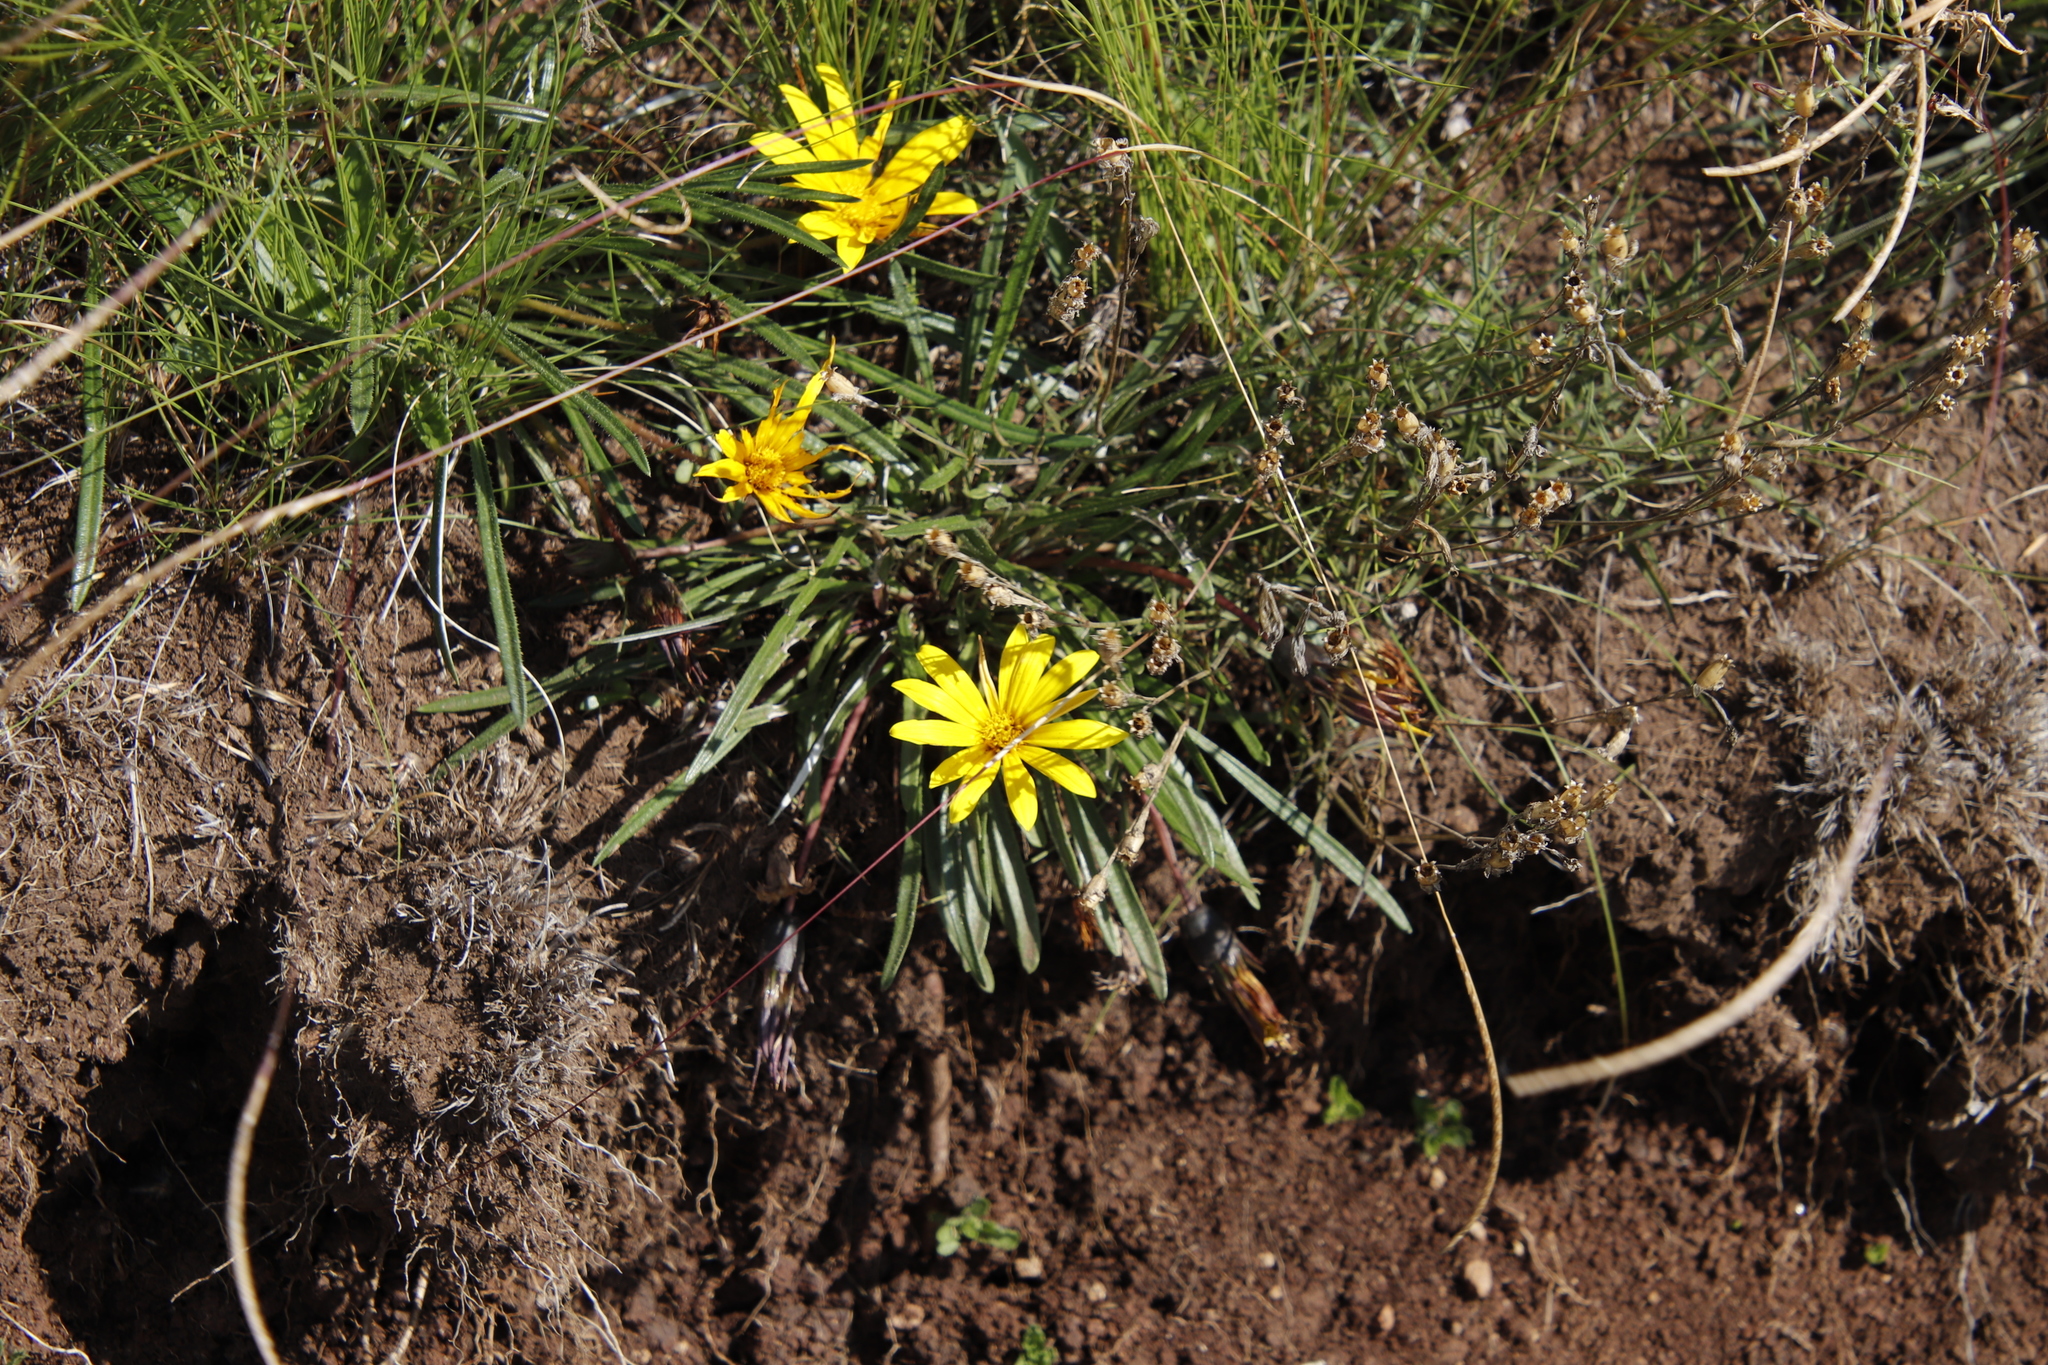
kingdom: Plantae
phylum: Tracheophyta
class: Magnoliopsida
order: Asterales
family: Asteraceae
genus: Gazania
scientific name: Gazania krebsiana
